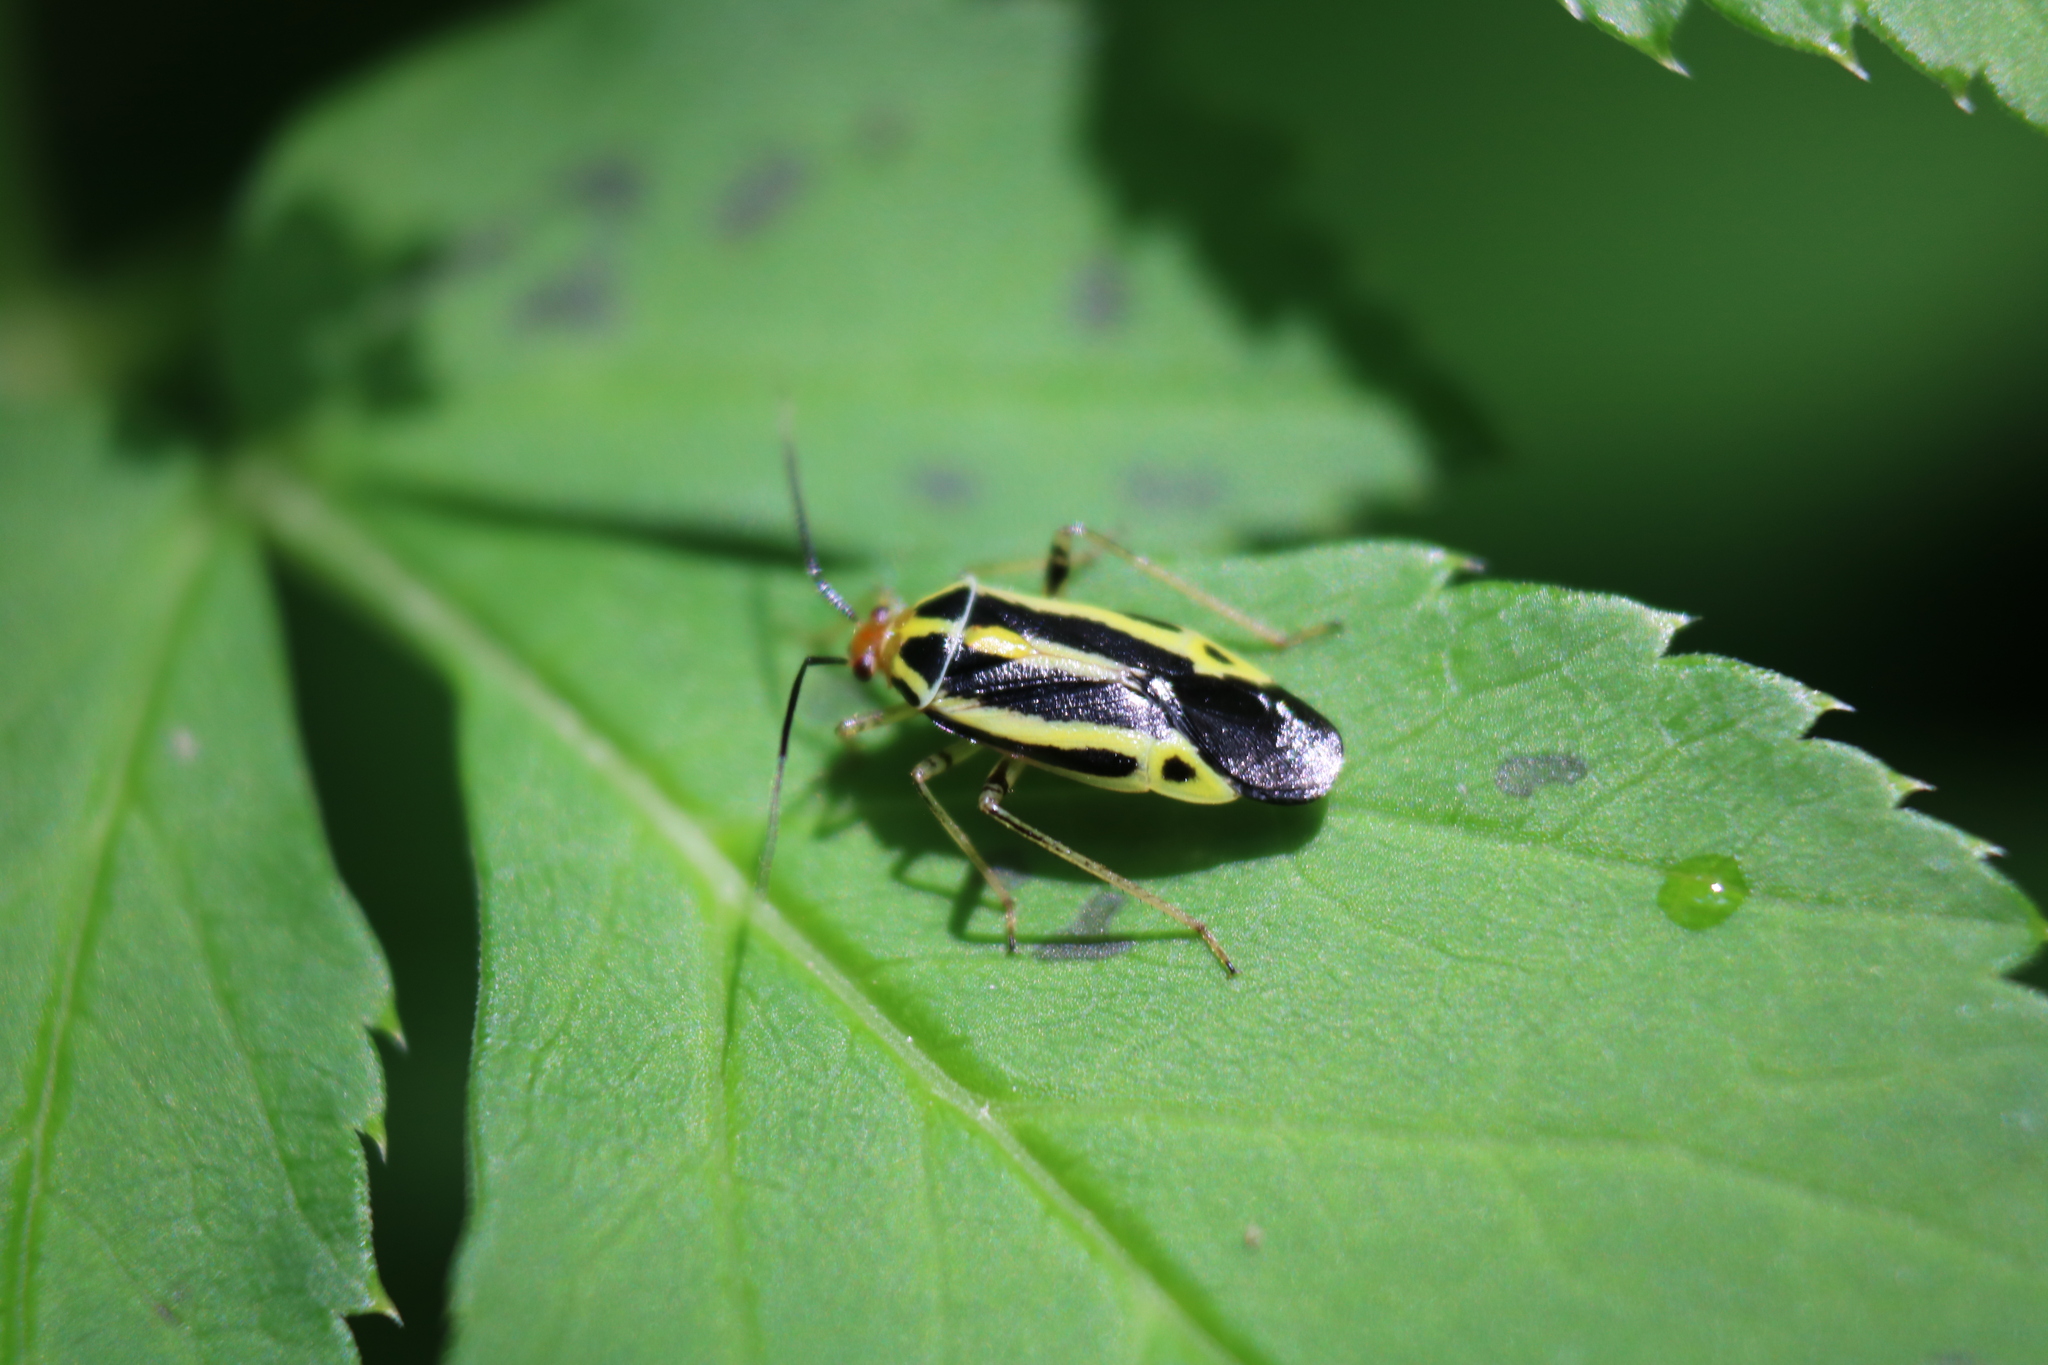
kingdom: Animalia
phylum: Arthropoda
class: Insecta
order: Hemiptera
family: Miridae
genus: Poecilocapsus
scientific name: Poecilocapsus lineatus
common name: Four-lined plant bug
